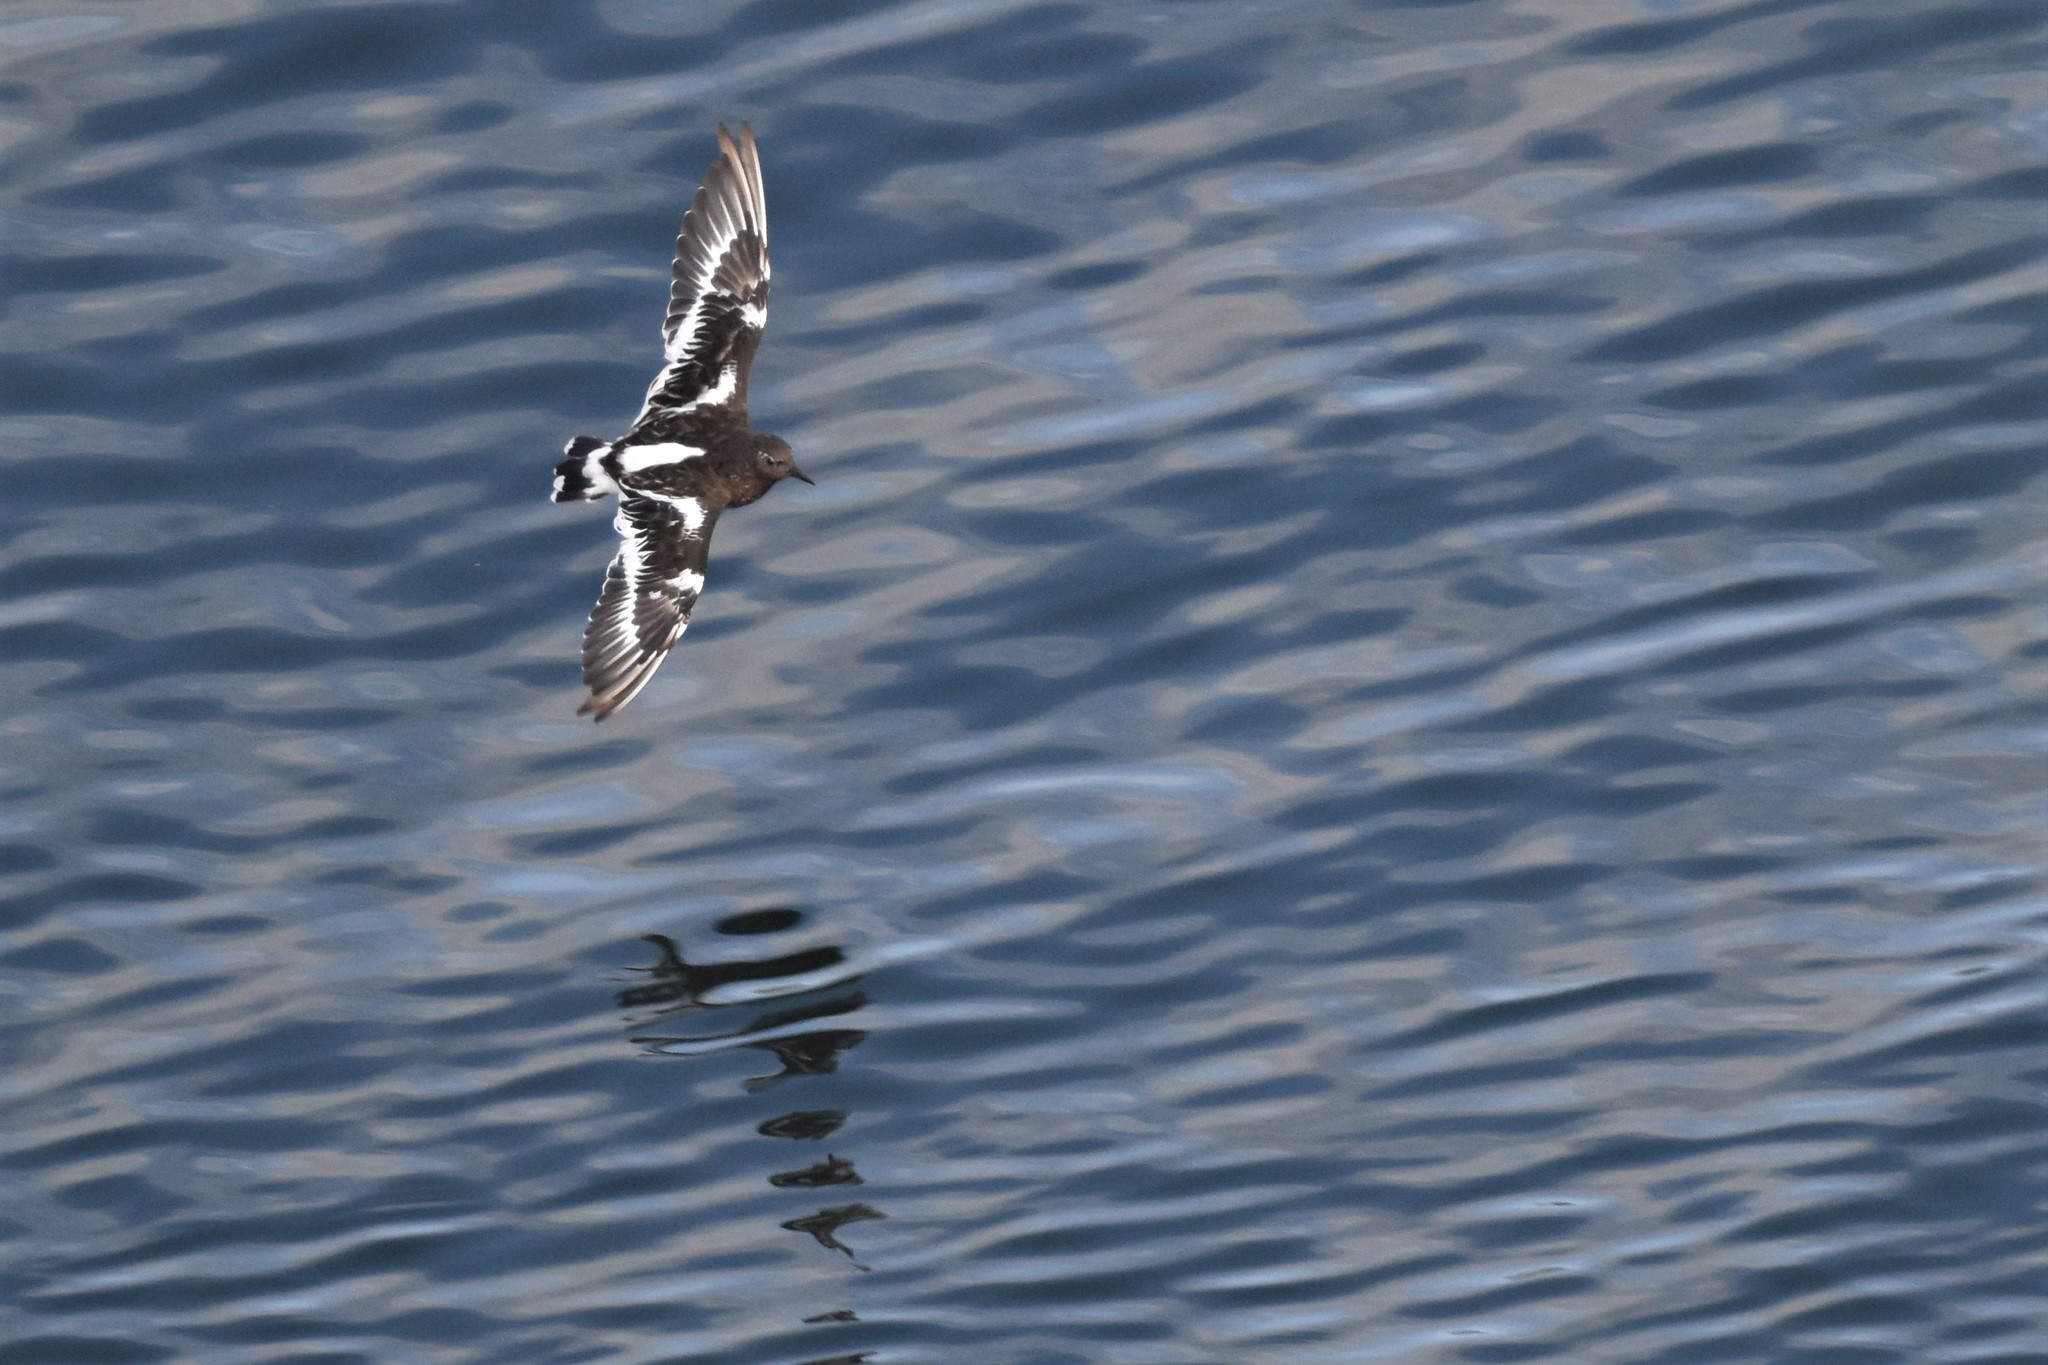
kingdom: Animalia
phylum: Chordata
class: Aves
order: Charadriiformes
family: Scolopacidae
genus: Arenaria
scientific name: Arenaria melanocephala
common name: Black turnstone
